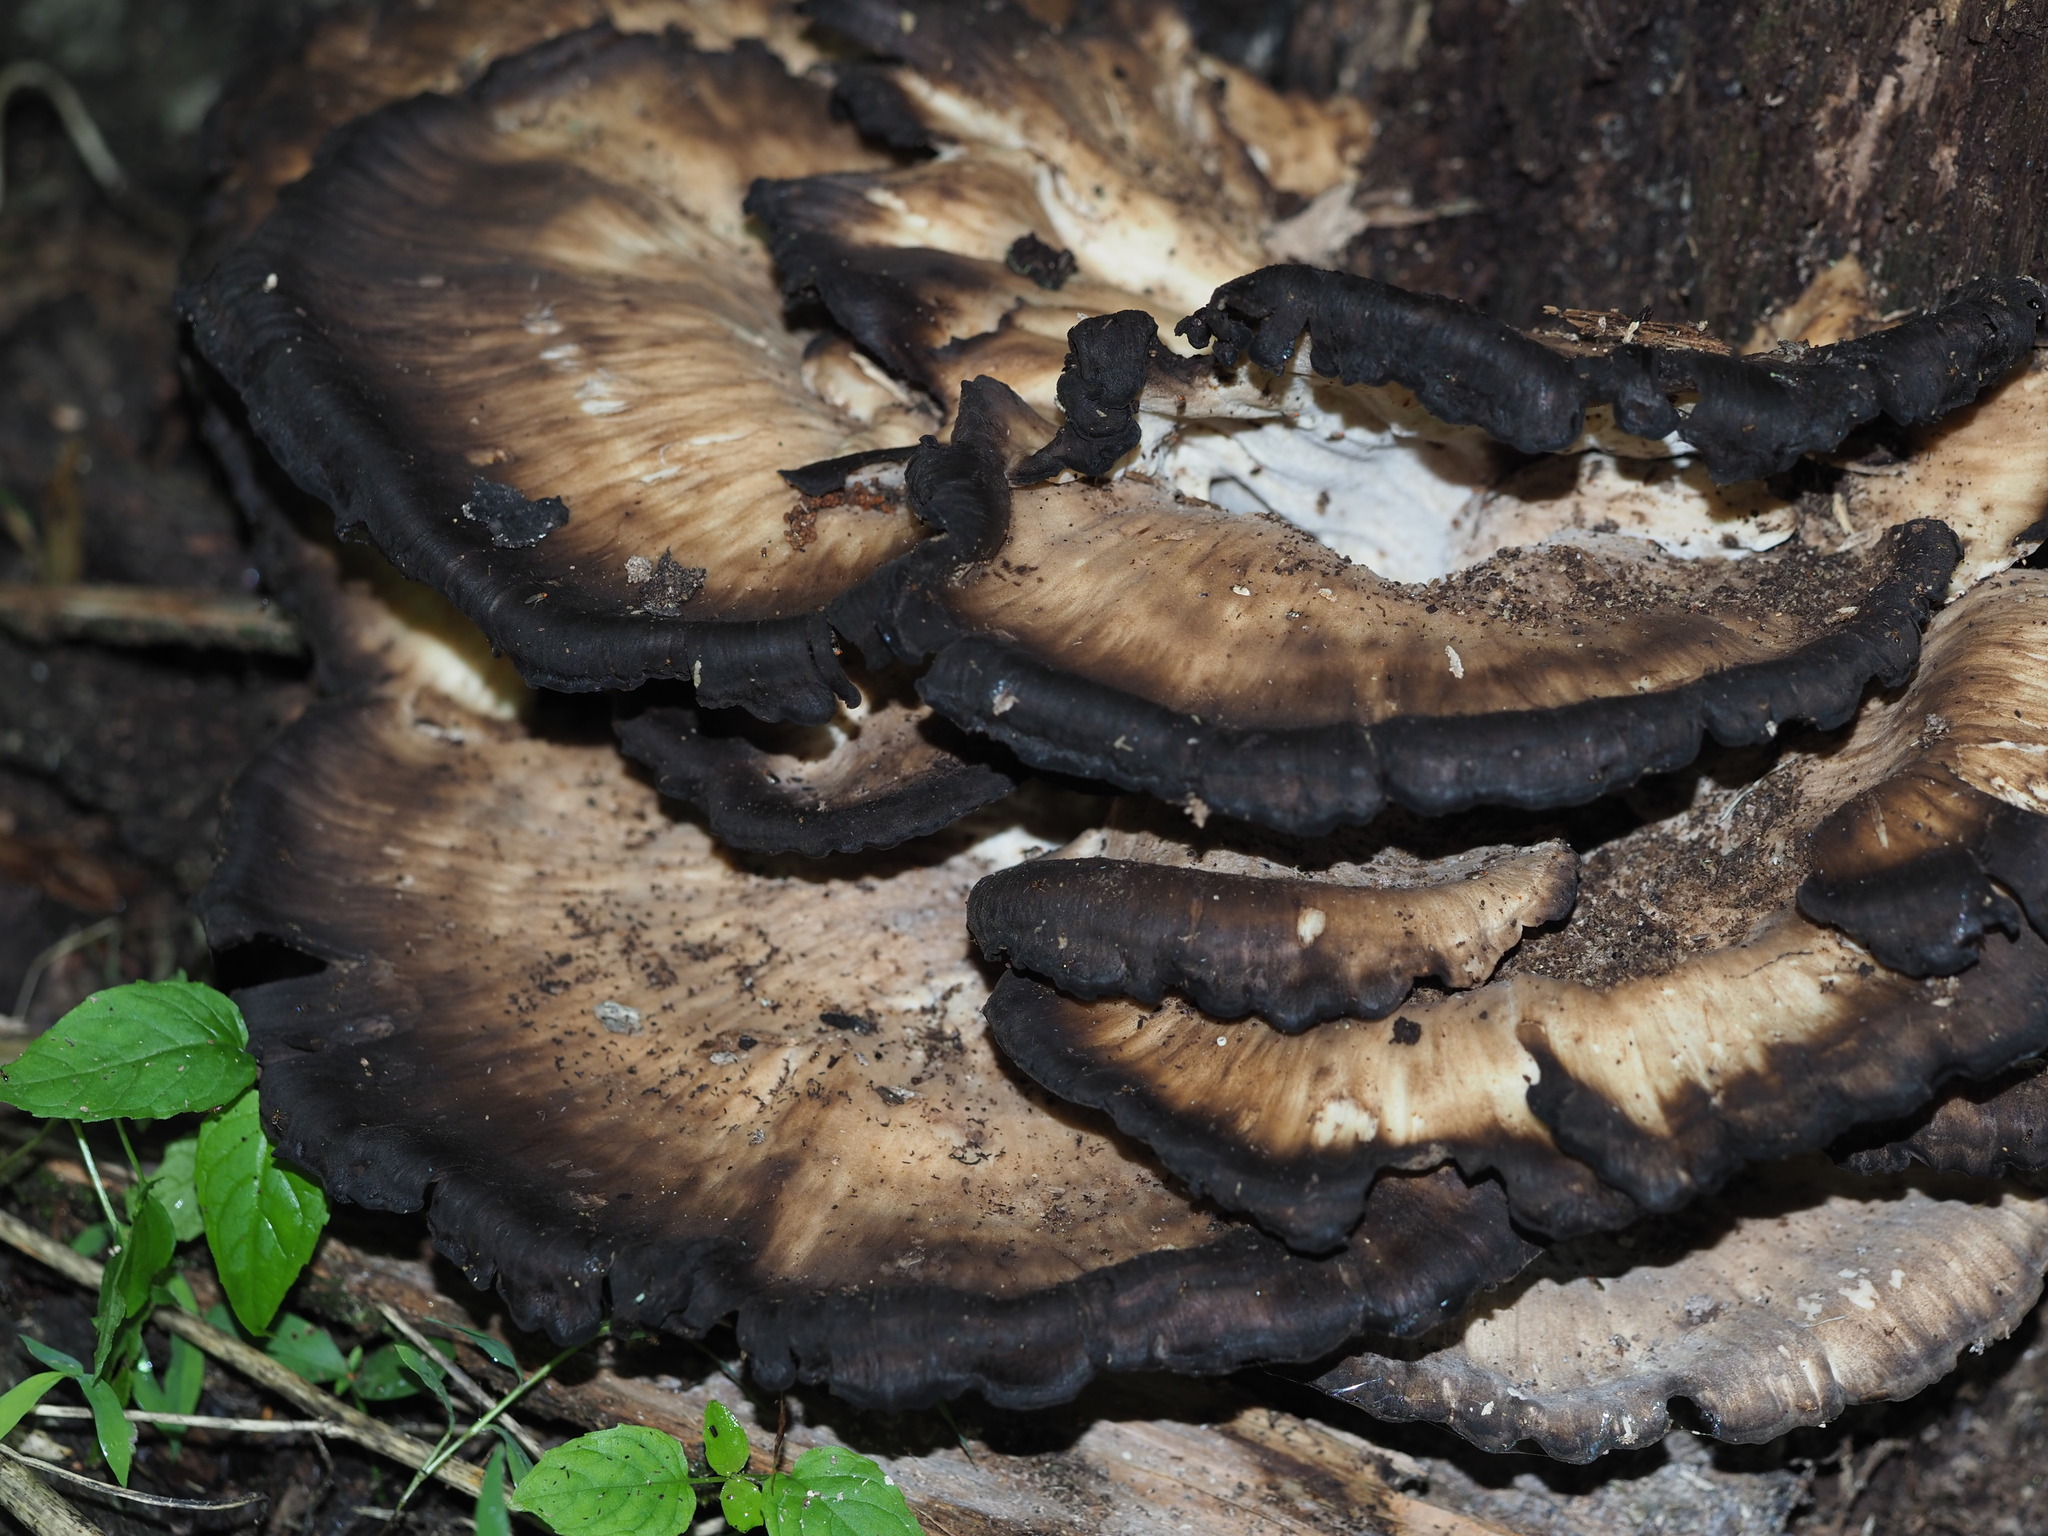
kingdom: Fungi
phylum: Basidiomycota
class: Agaricomycetes
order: Polyporales
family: Meripilaceae
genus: Meripilus
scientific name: Meripilus sumstinei
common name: Black-staining polypore
